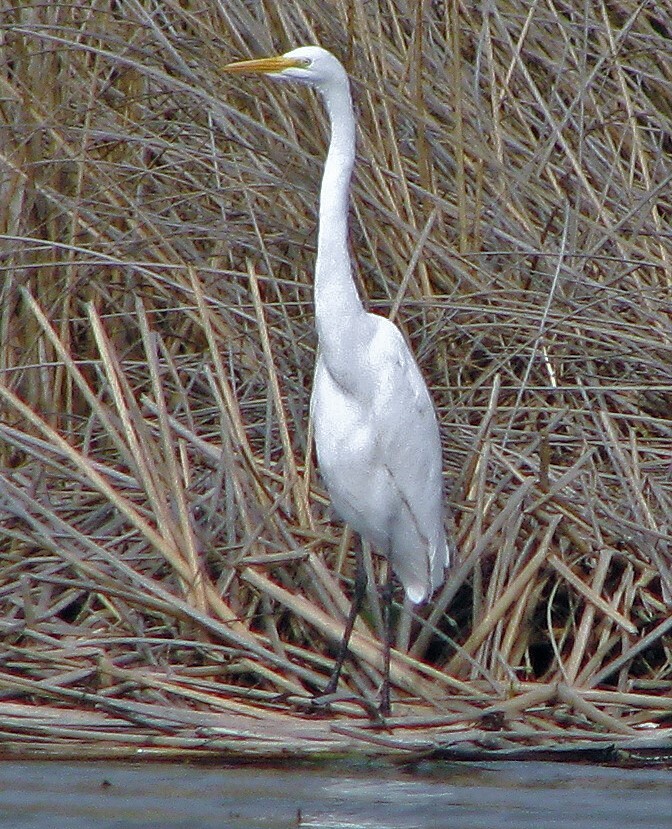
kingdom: Animalia
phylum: Chordata
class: Aves
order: Pelecaniformes
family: Ardeidae
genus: Ardea
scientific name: Ardea alba
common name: Great egret
